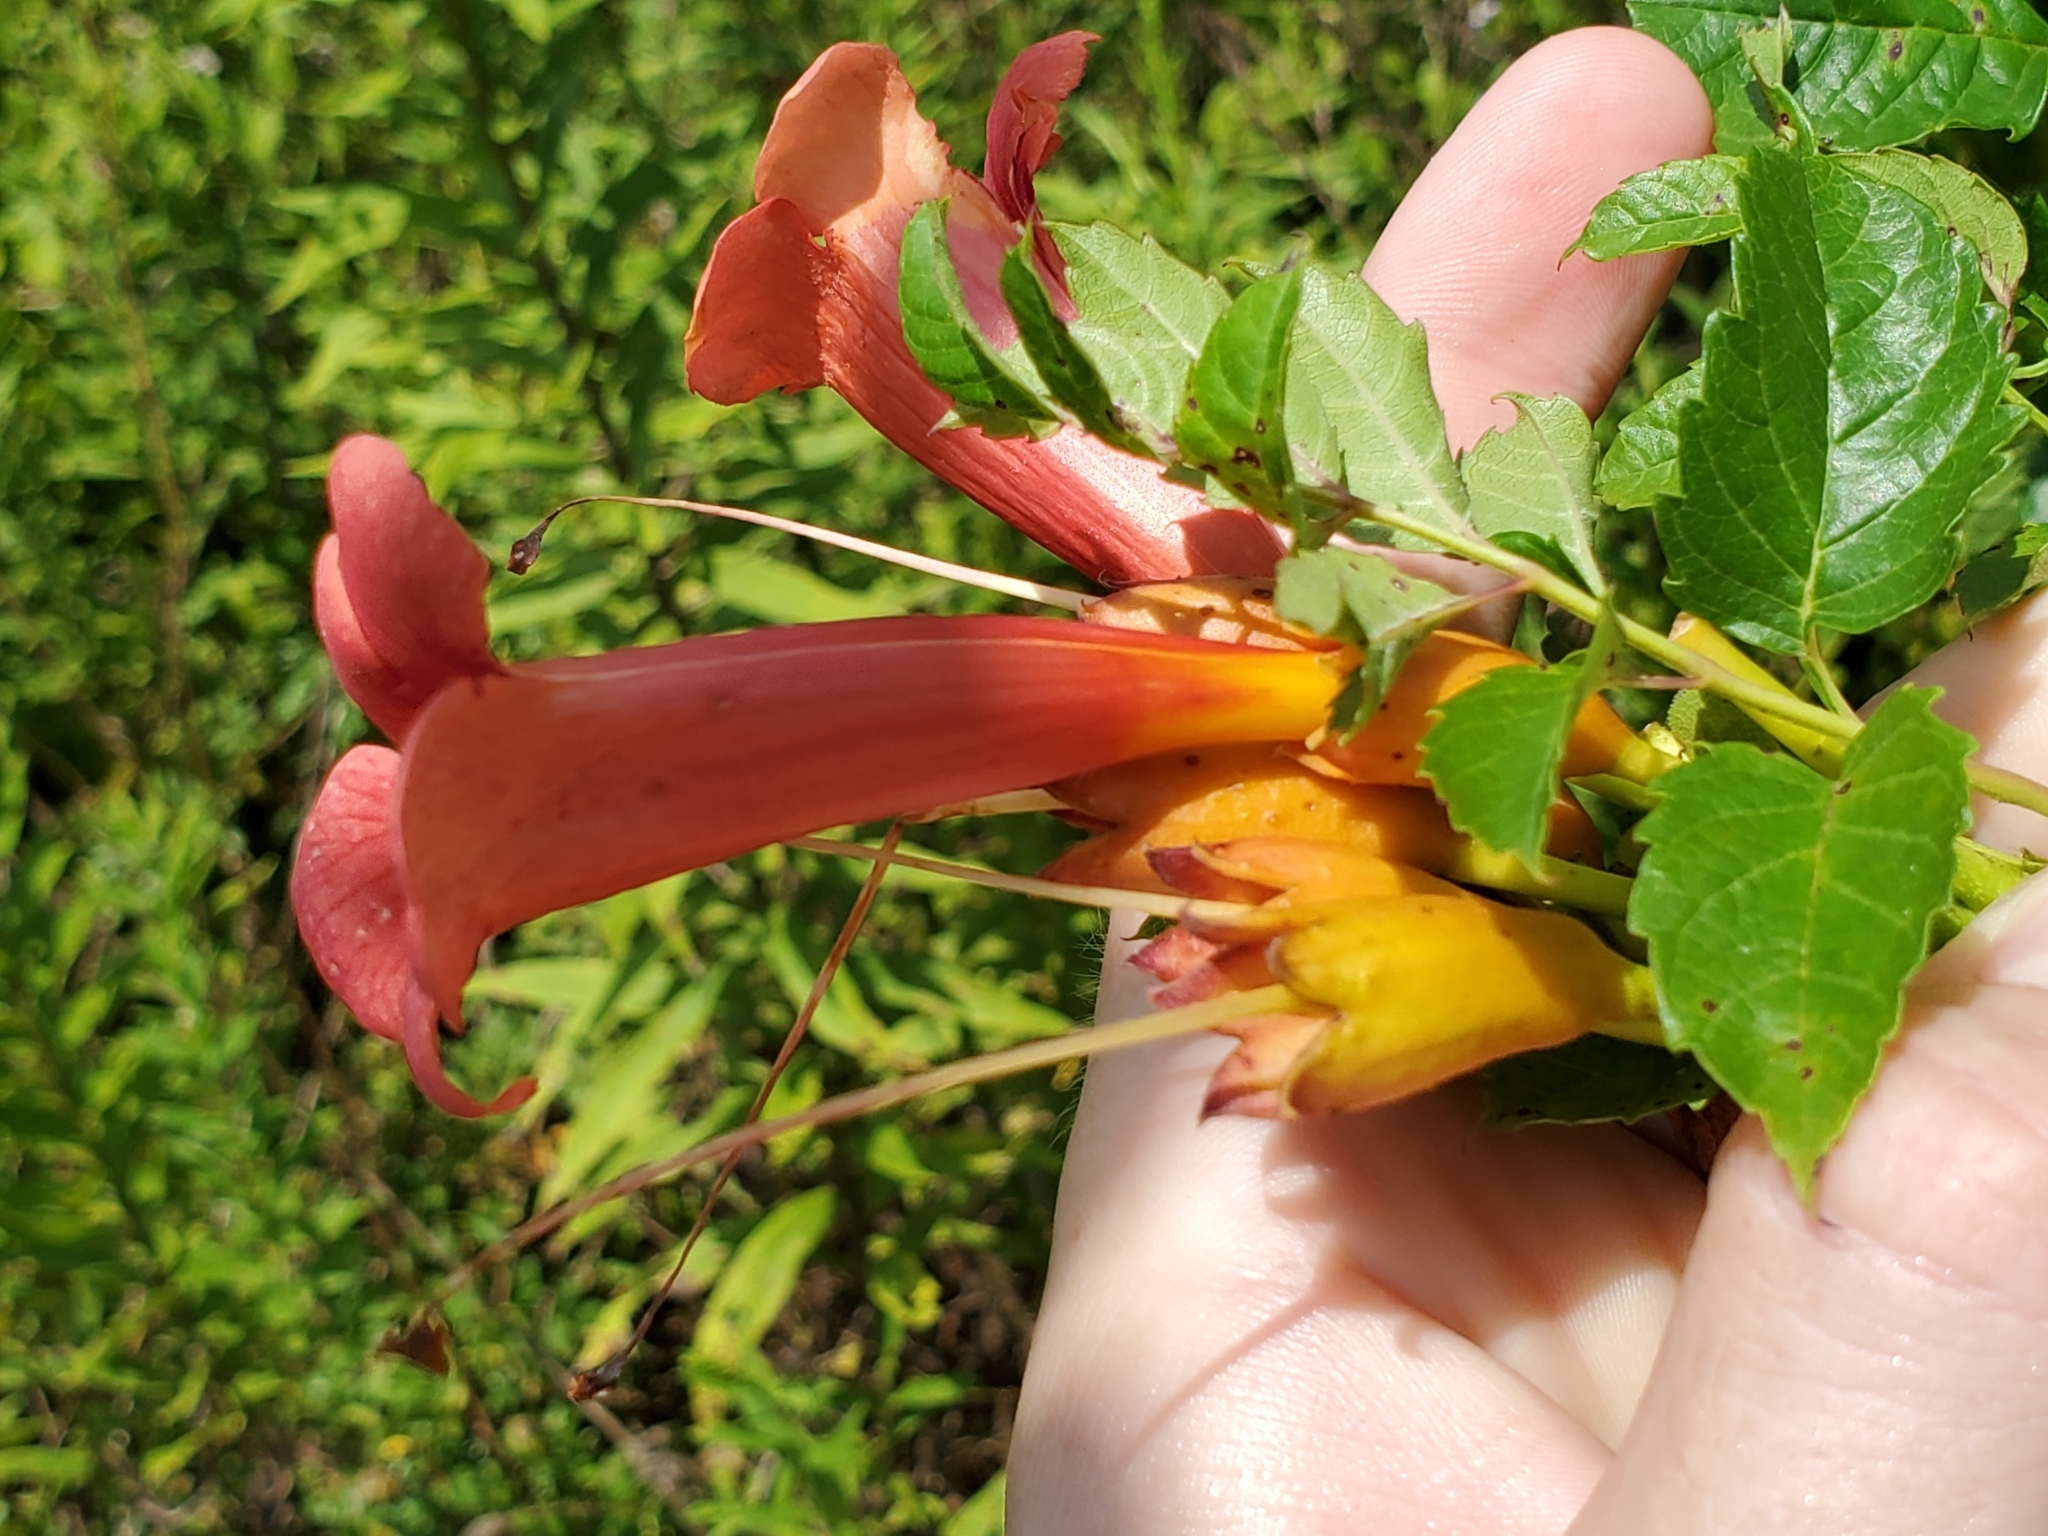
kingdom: Plantae
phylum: Tracheophyta
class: Magnoliopsida
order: Lamiales
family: Bignoniaceae
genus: Campsis
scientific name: Campsis radicans
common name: Trumpet-creeper
